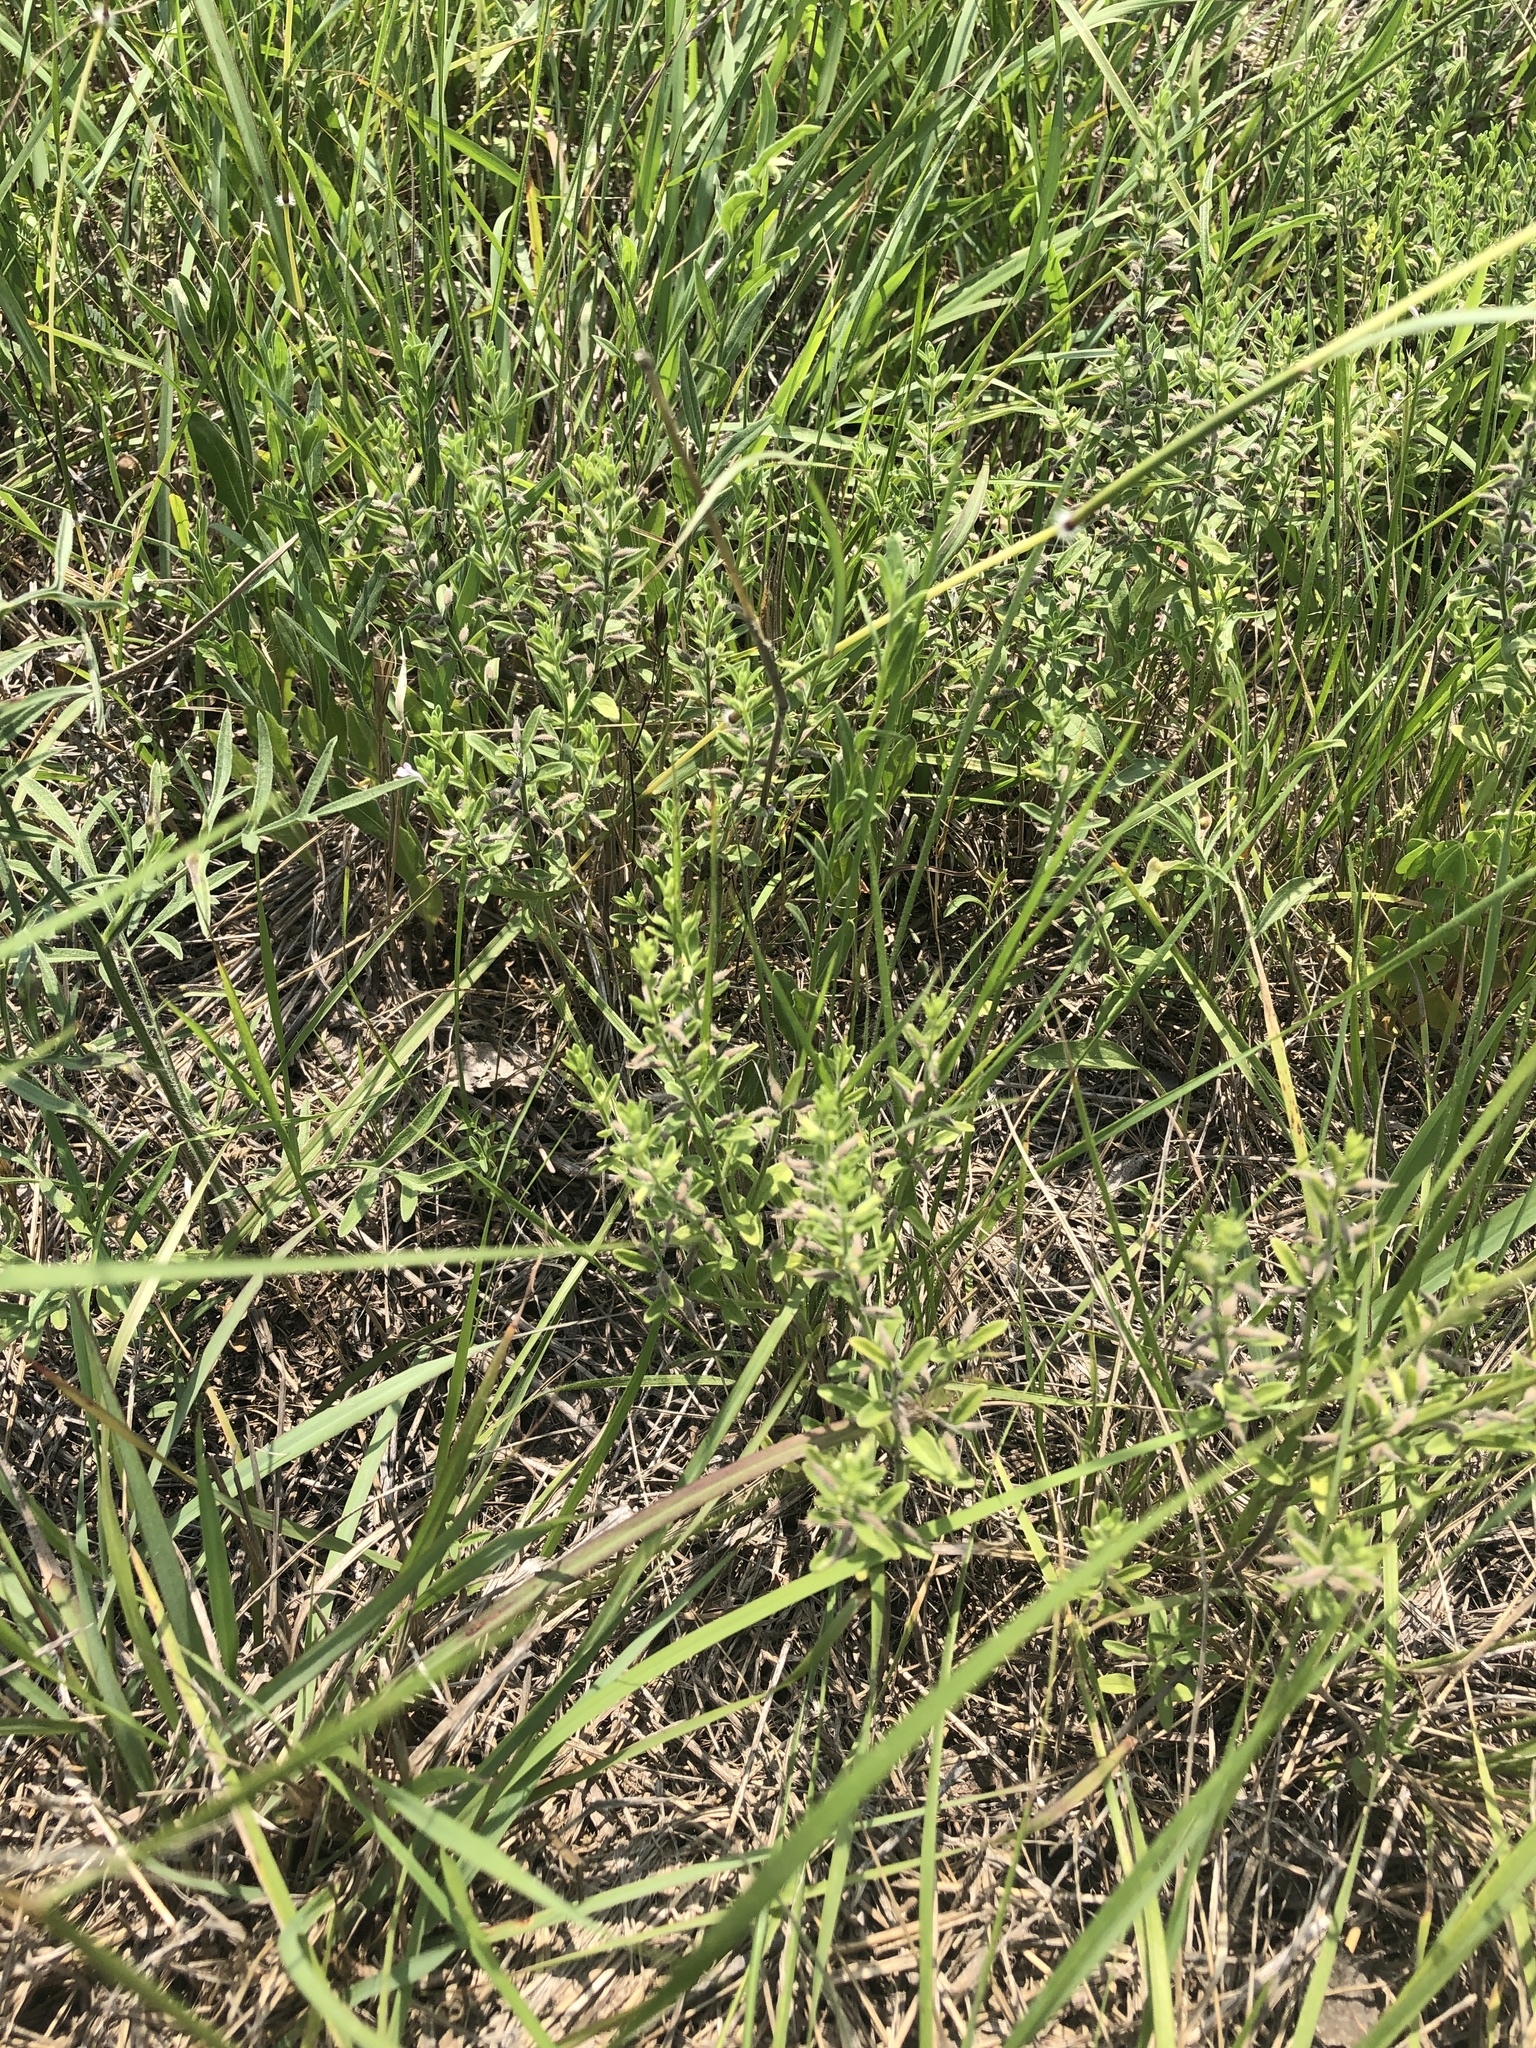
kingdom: Plantae
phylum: Tracheophyta
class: Magnoliopsida
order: Lamiales
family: Lamiaceae
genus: Hedeoma
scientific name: Hedeoma reverchonii
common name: Reverchon's false penny-royal
